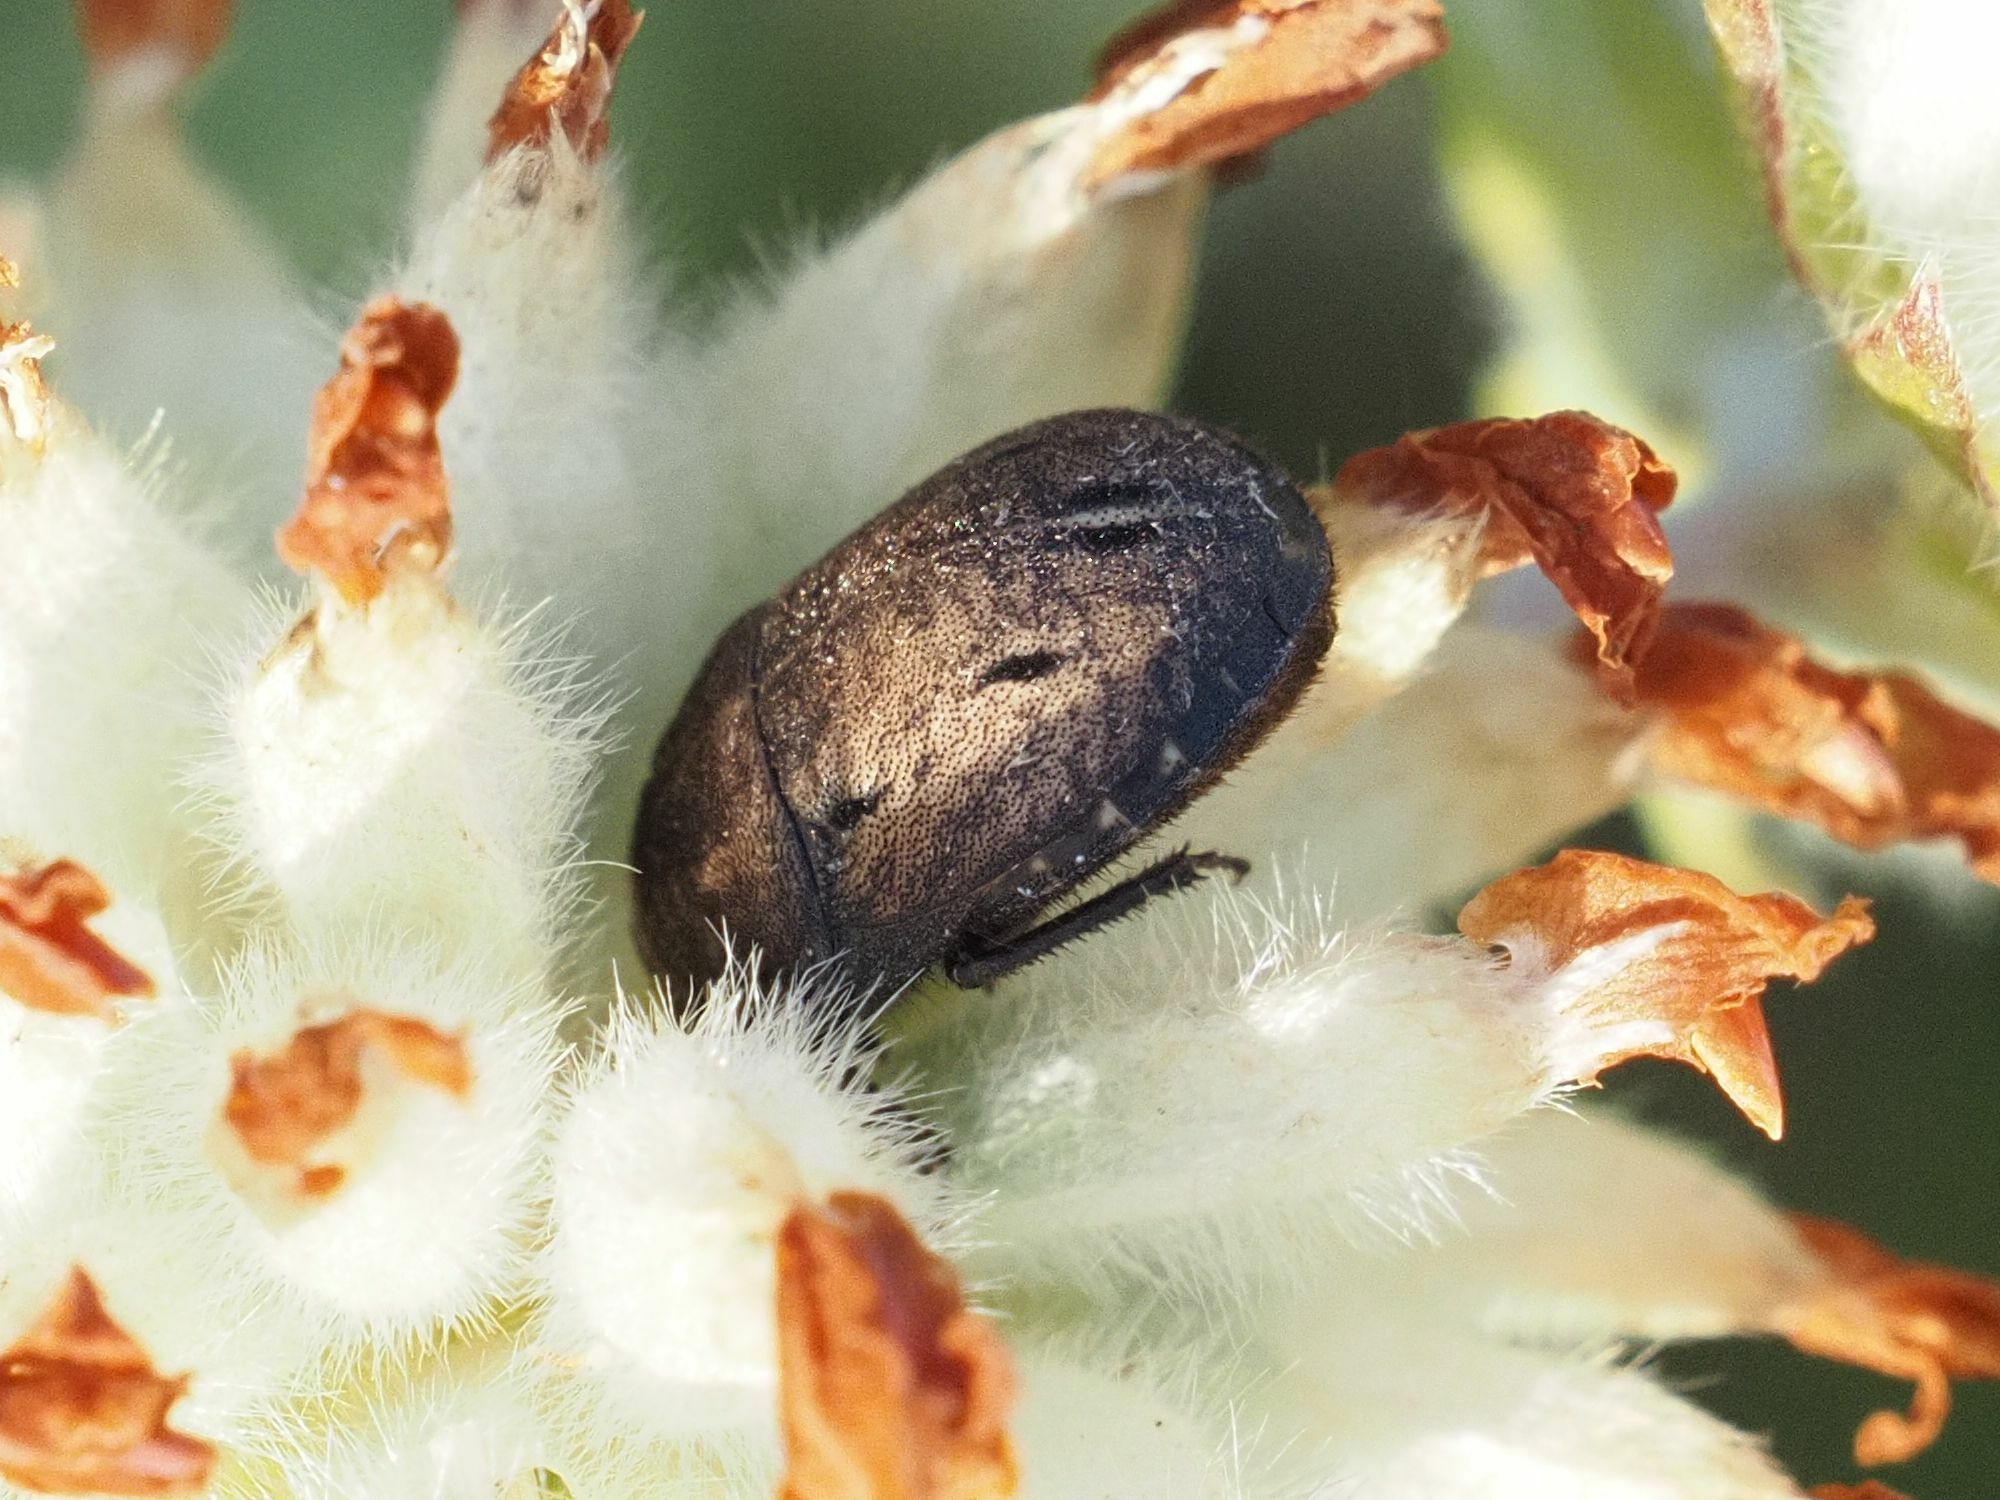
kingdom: Animalia
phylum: Arthropoda
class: Insecta
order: Hemiptera
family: Scutelleridae
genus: Odontoscelis
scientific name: Odontoscelis fuliginosa
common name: Greater streaked shieldbug
